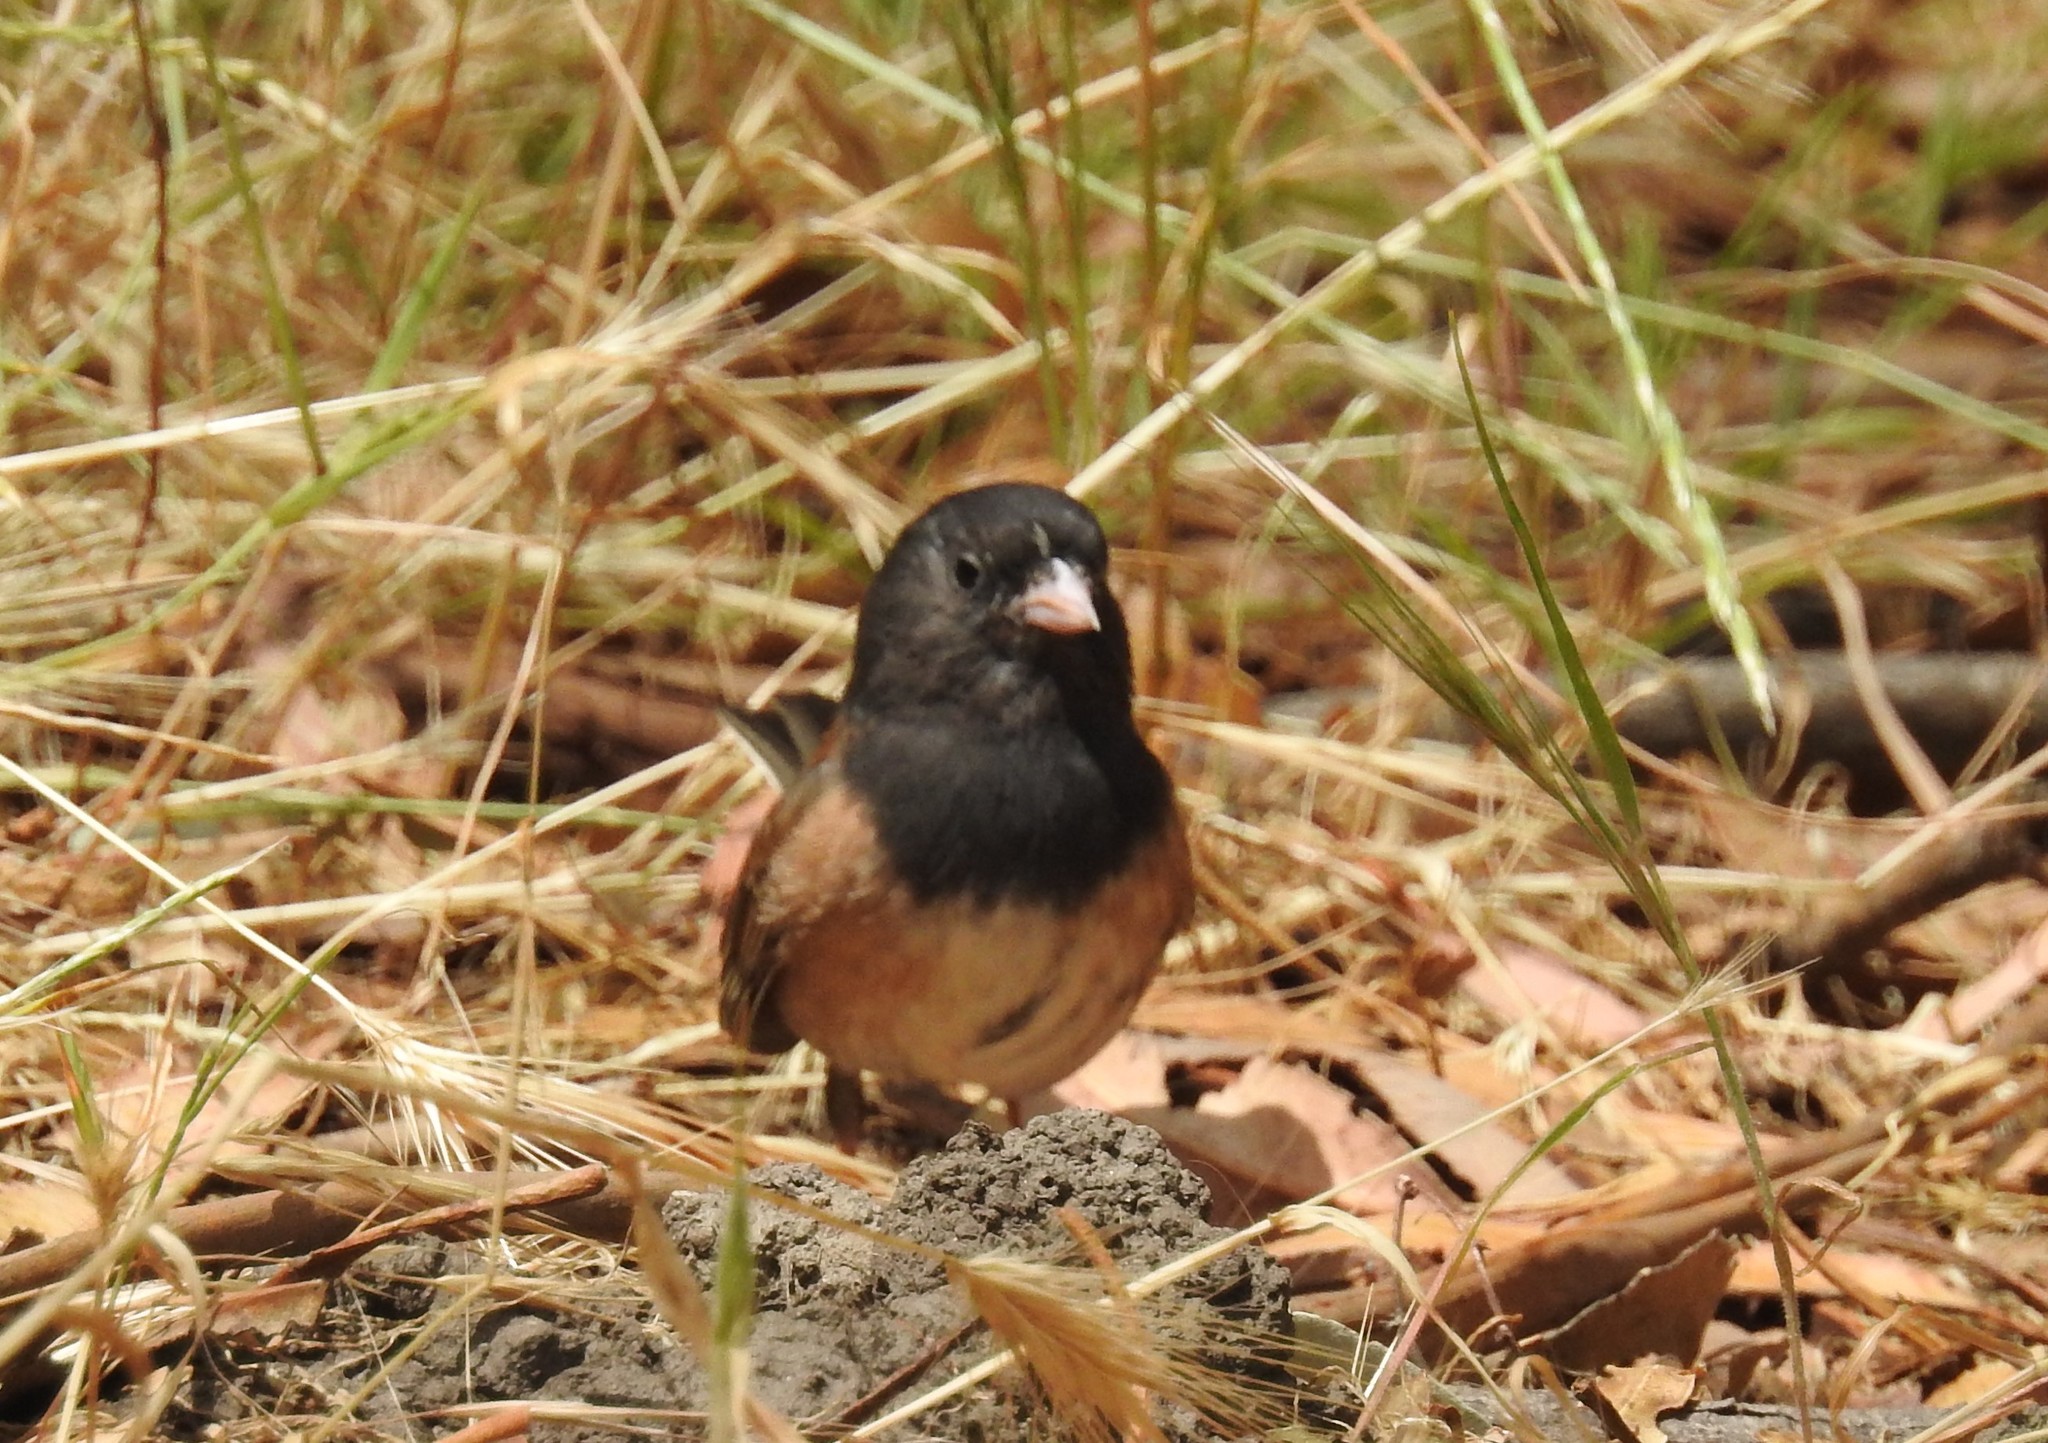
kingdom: Animalia
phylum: Chordata
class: Aves
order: Passeriformes
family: Passerellidae
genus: Junco
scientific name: Junco hyemalis
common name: Dark-eyed junco
